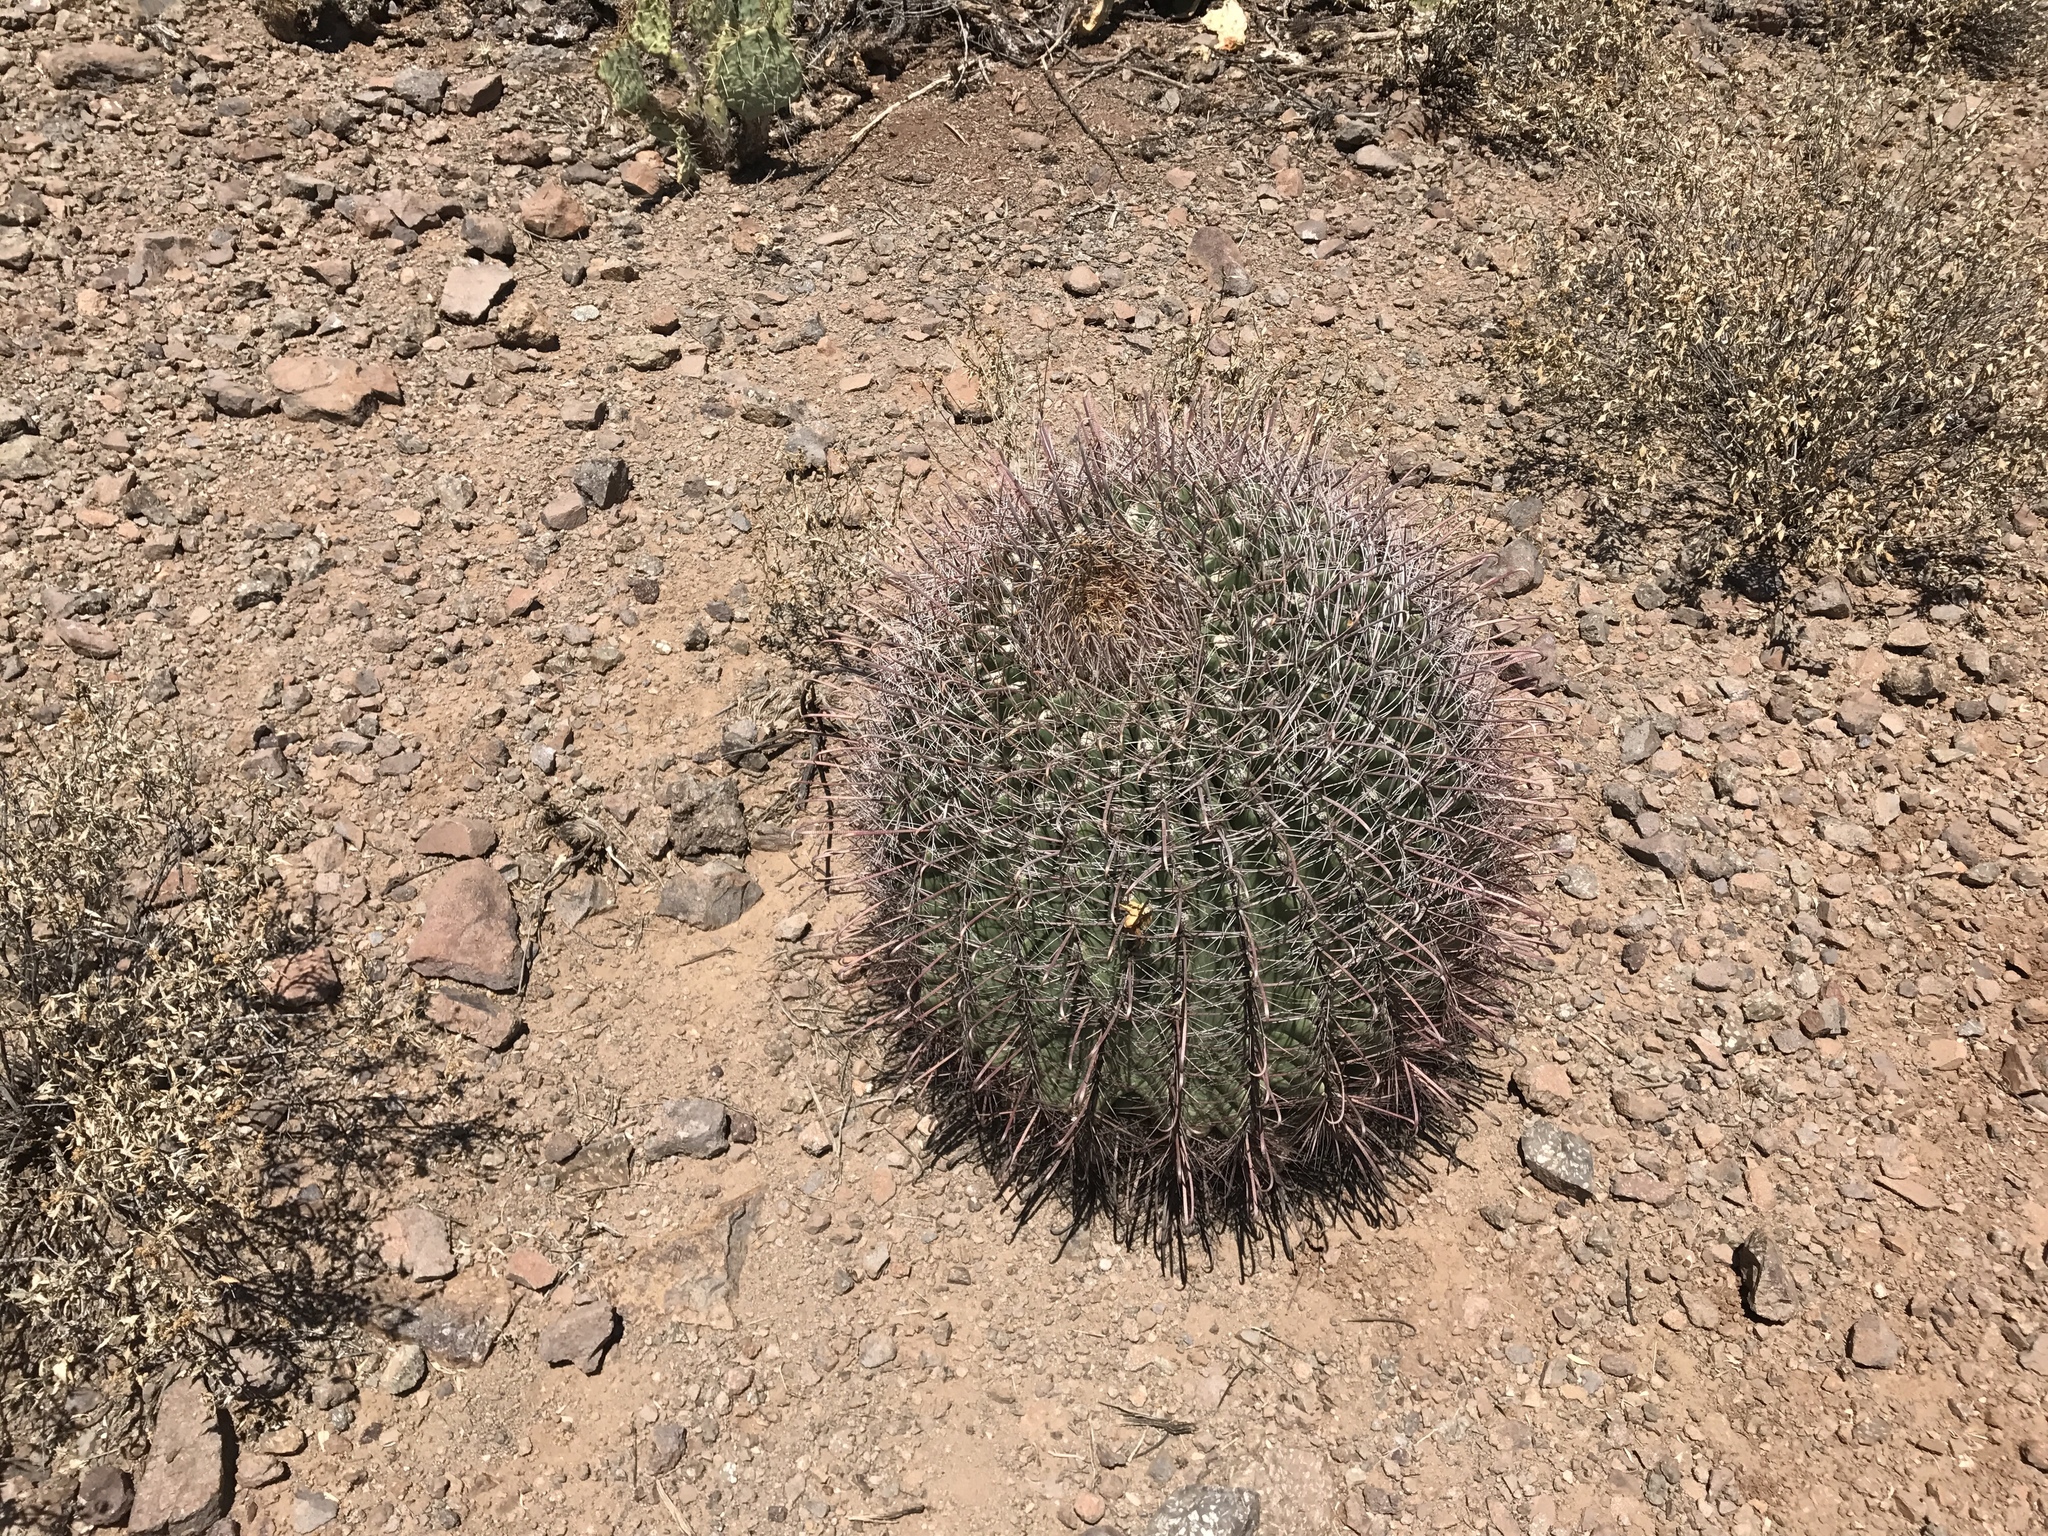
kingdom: Plantae
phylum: Tracheophyta
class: Magnoliopsida
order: Caryophyllales
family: Cactaceae
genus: Ferocactus
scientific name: Ferocactus wislizeni
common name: Candy barrel cactus
